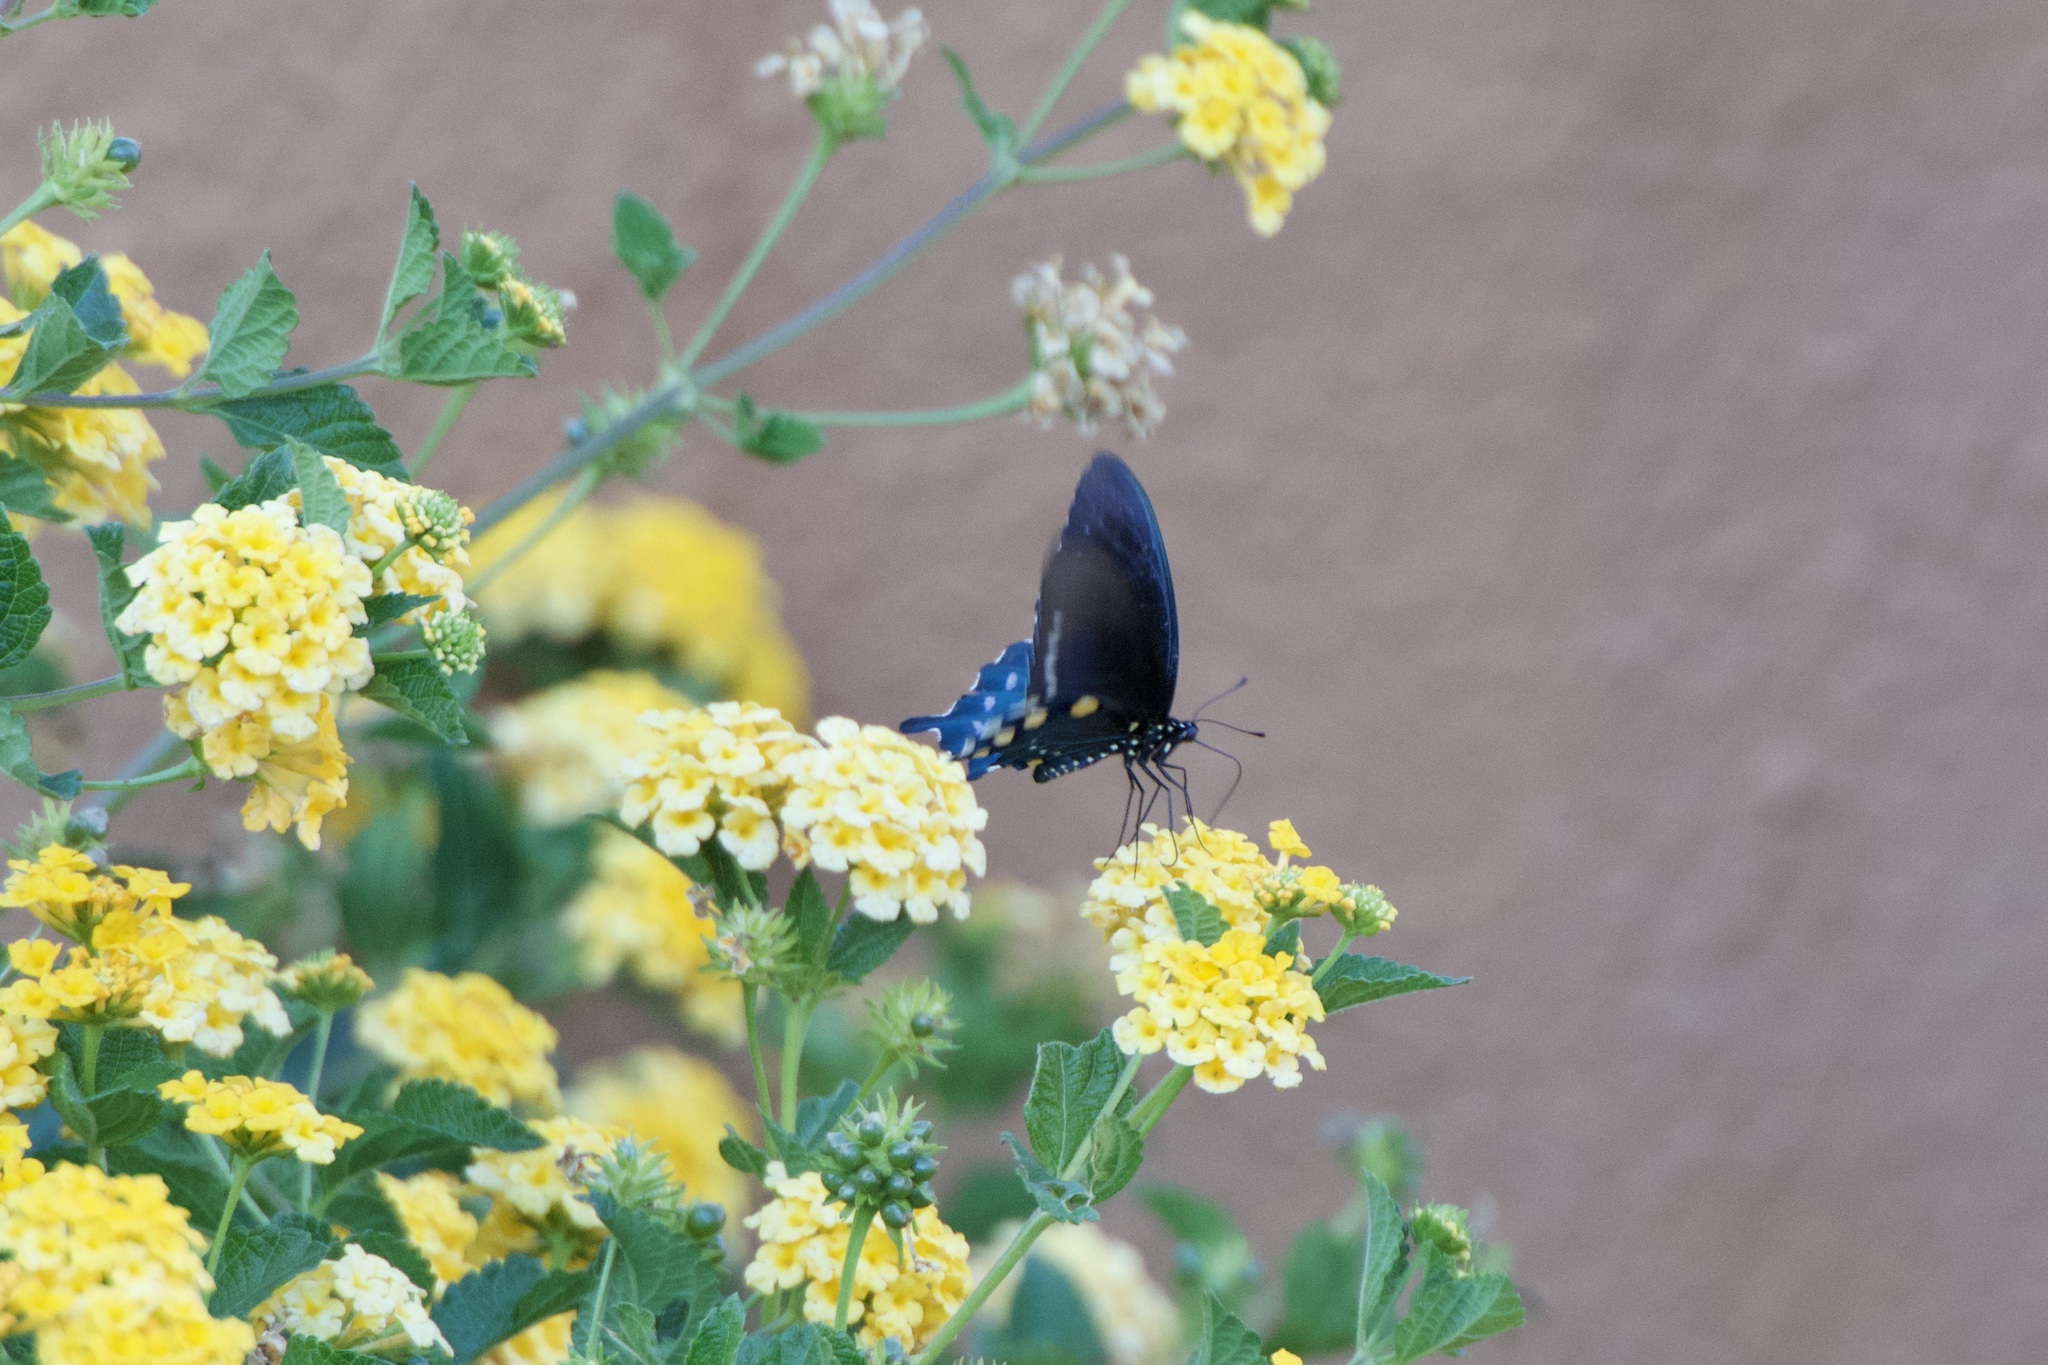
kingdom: Animalia
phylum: Arthropoda
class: Insecta
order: Lepidoptera
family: Papilionidae
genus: Battus
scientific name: Battus philenor
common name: Pipevine swallowtail
